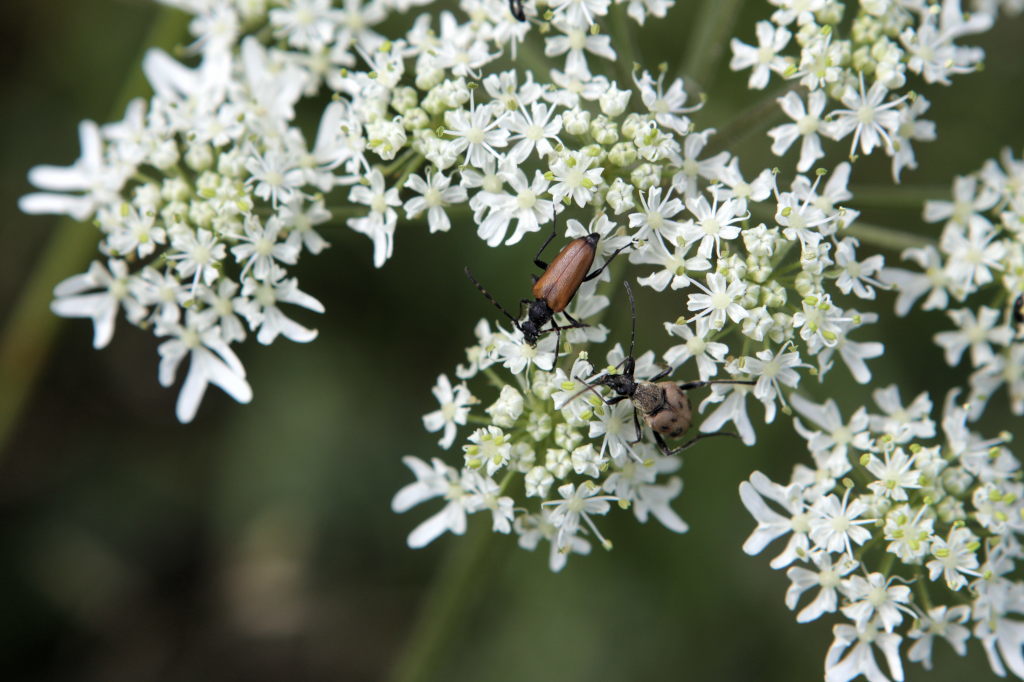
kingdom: Animalia
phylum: Arthropoda
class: Insecta
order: Coleoptera
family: Cerambycidae
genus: Paracorymbia
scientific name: Paracorymbia maculicornis
